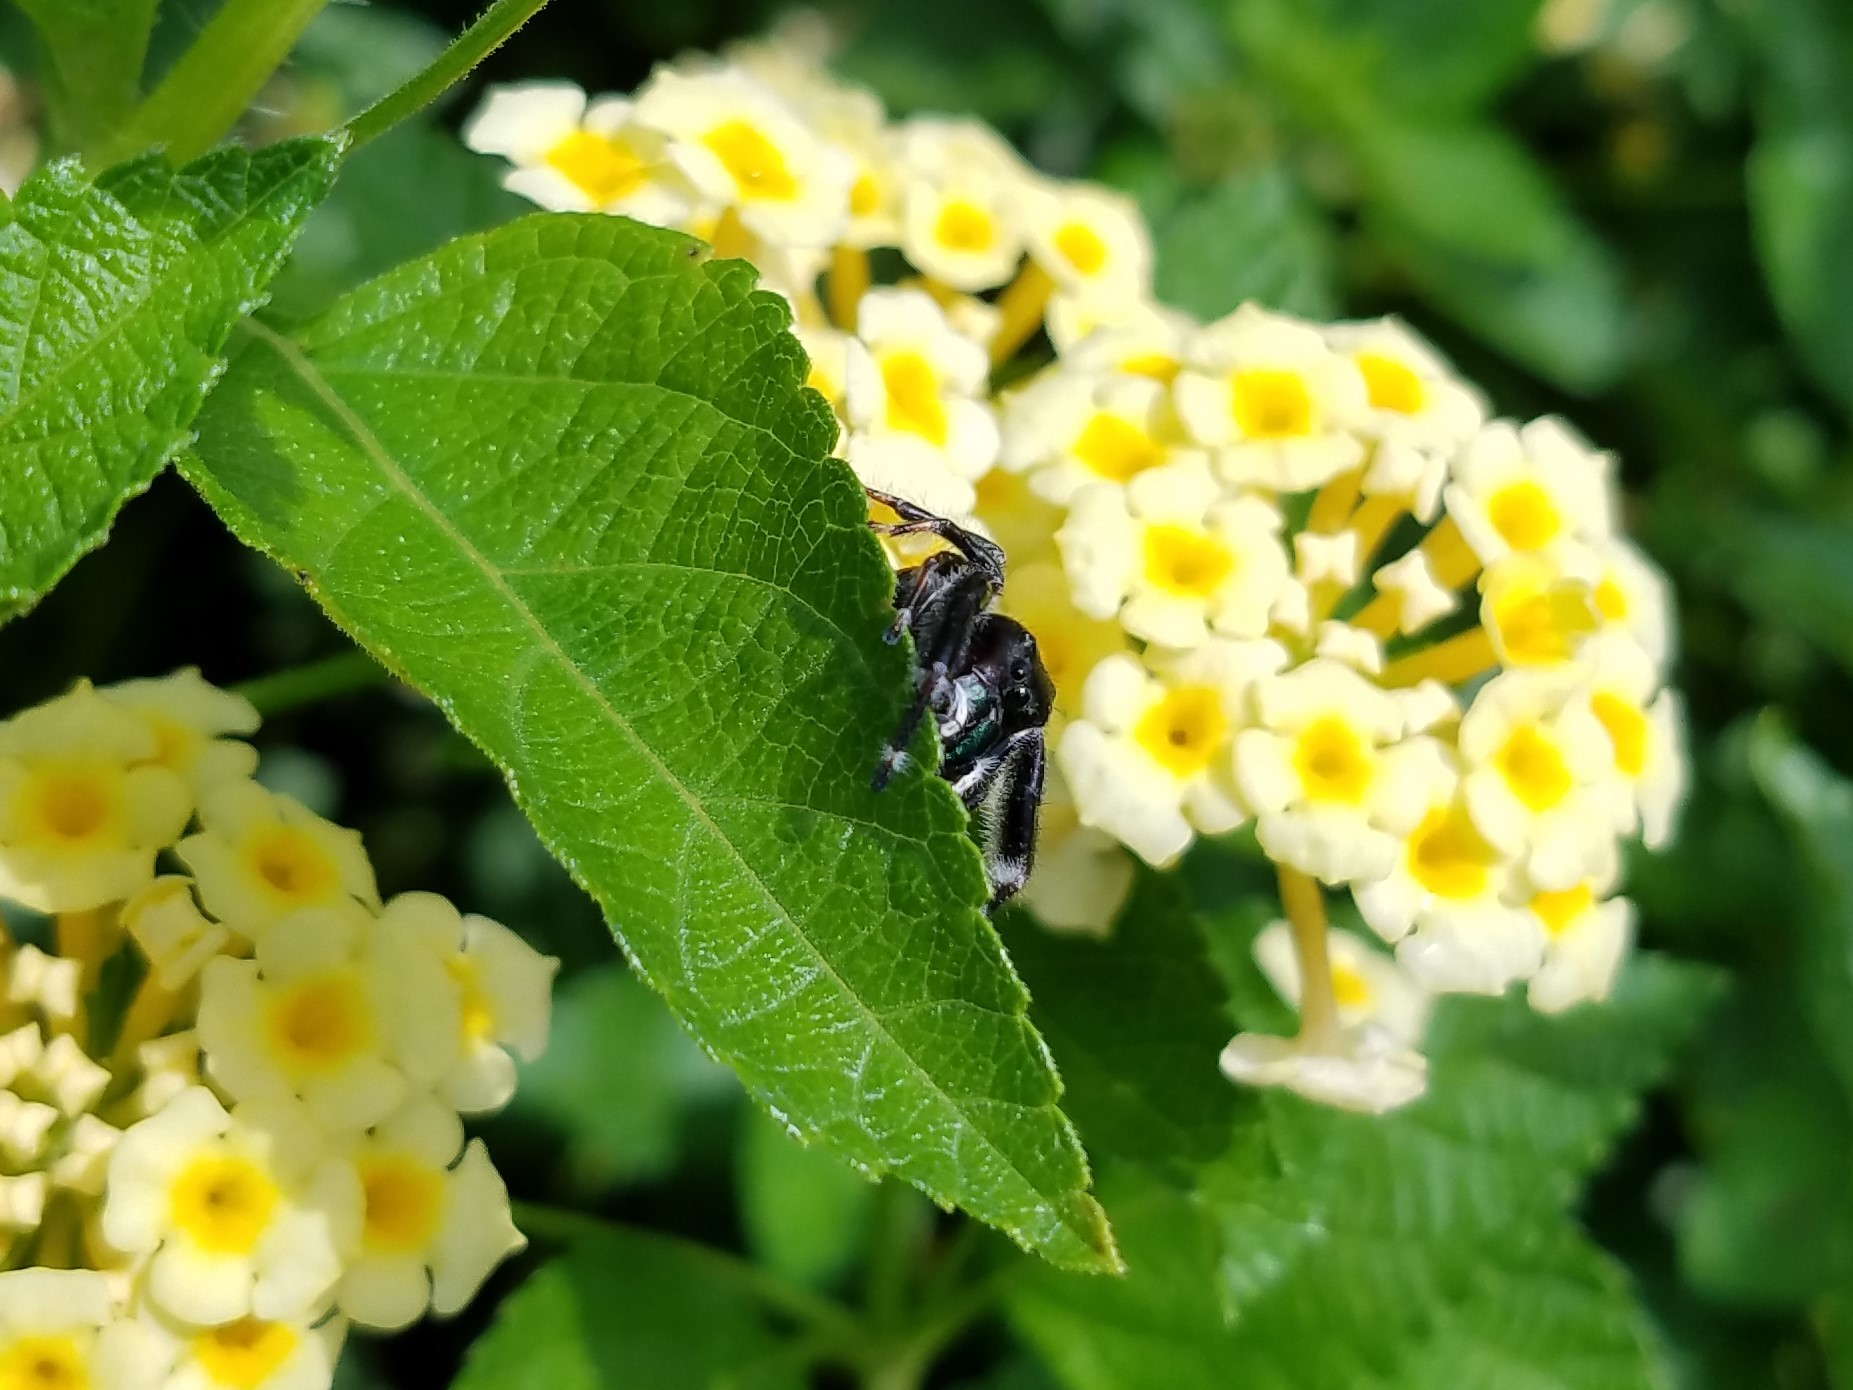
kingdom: Animalia
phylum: Arthropoda
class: Arachnida
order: Araneae
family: Salticidae
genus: Phidippus
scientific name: Phidippus clarus
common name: Brilliant jumping spider
